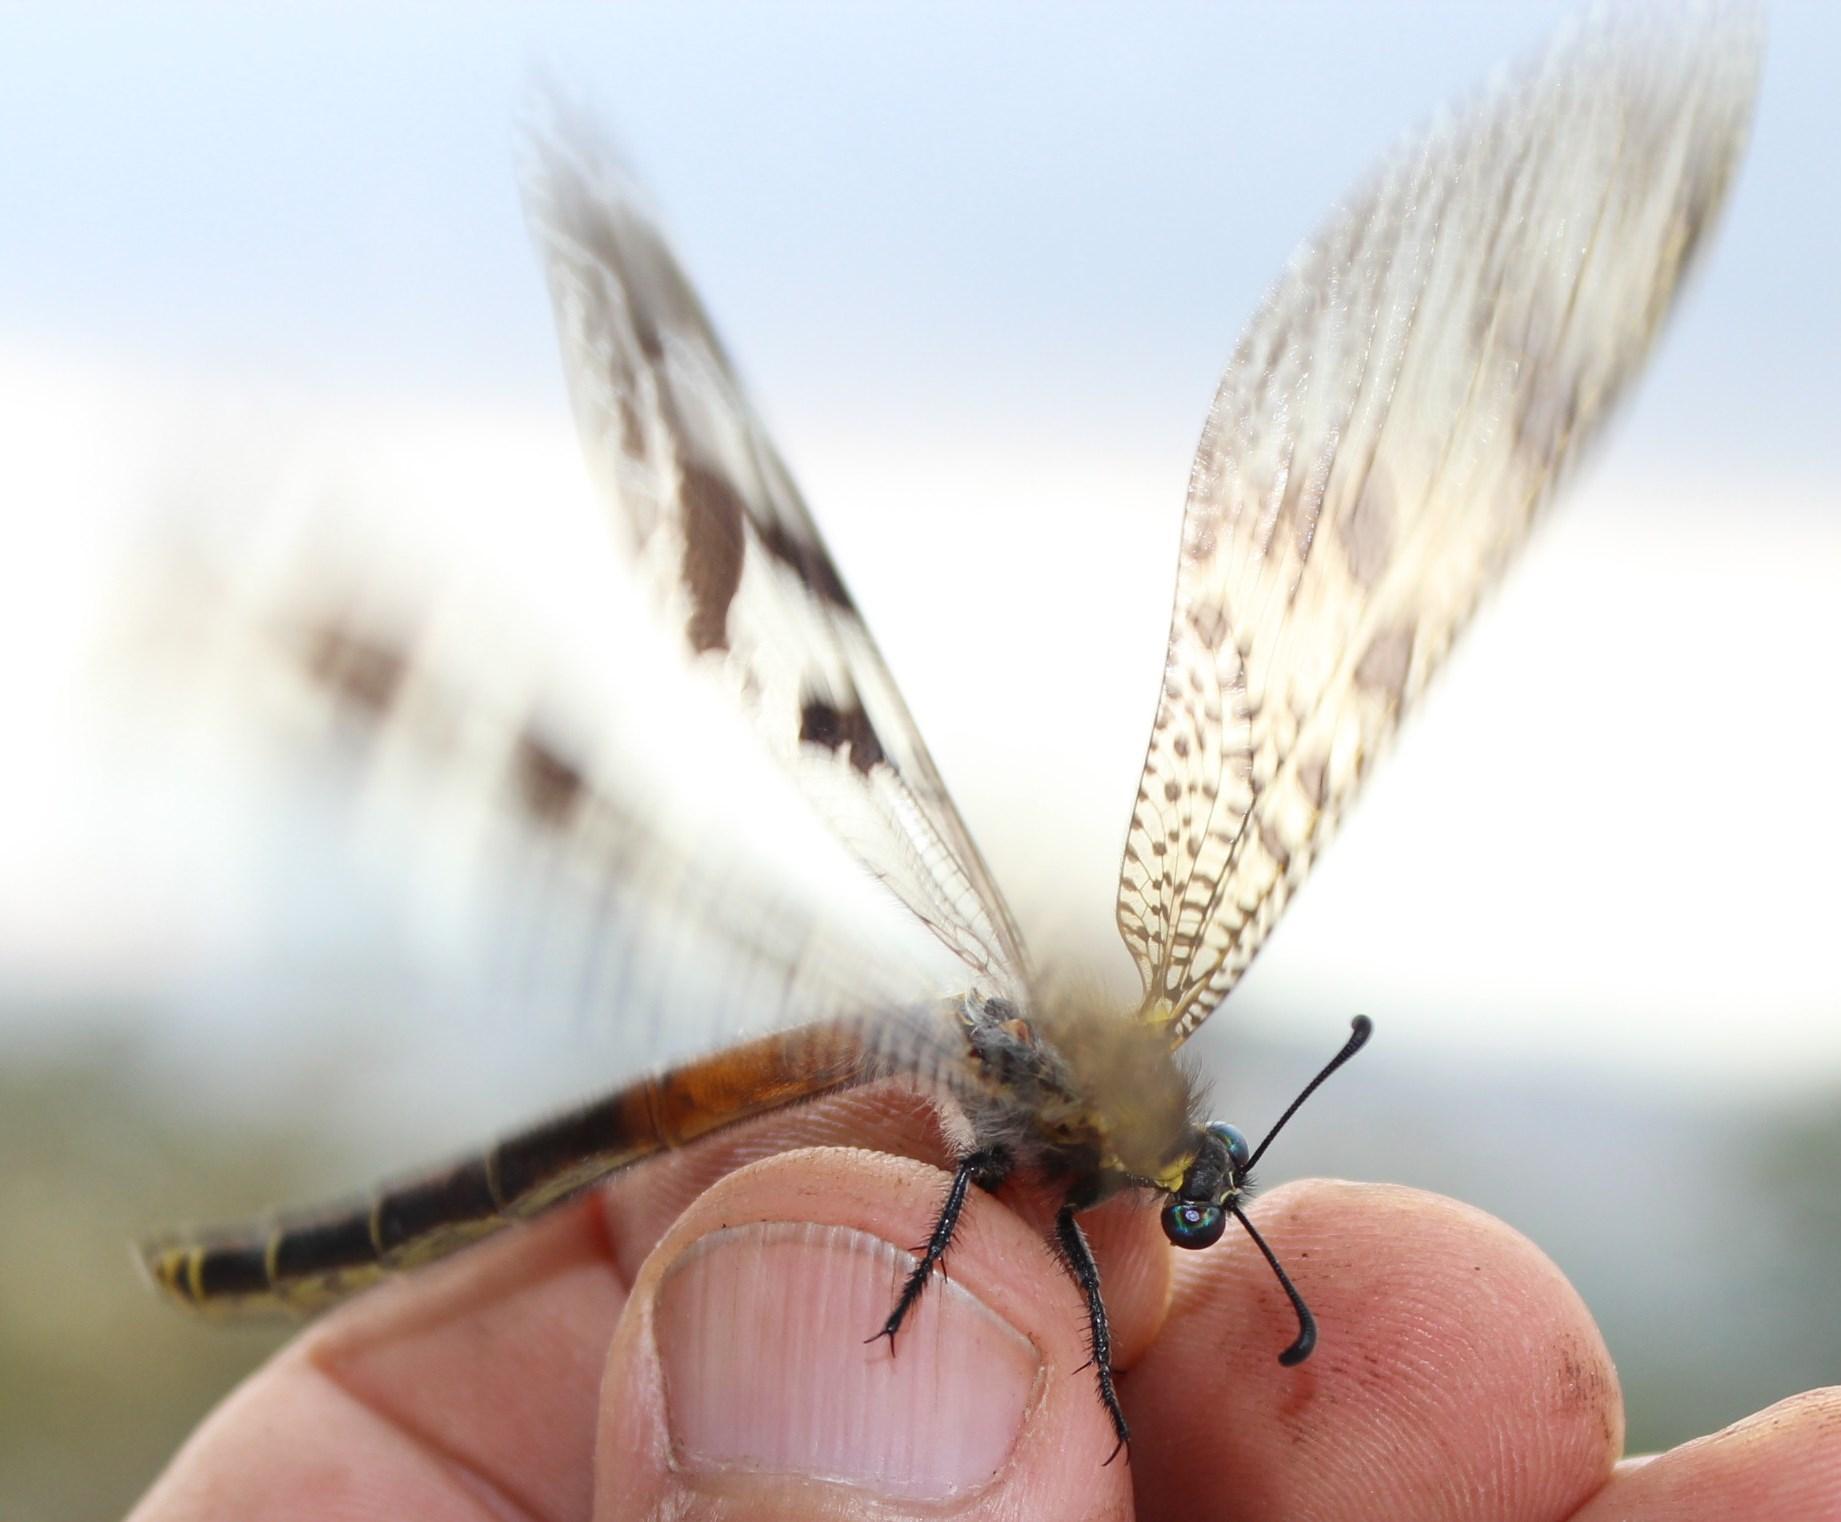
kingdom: Animalia
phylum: Arthropoda
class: Insecta
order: Neuroptera
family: Myrmeleontidae
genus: Palpares
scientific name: Palpares speciosus
